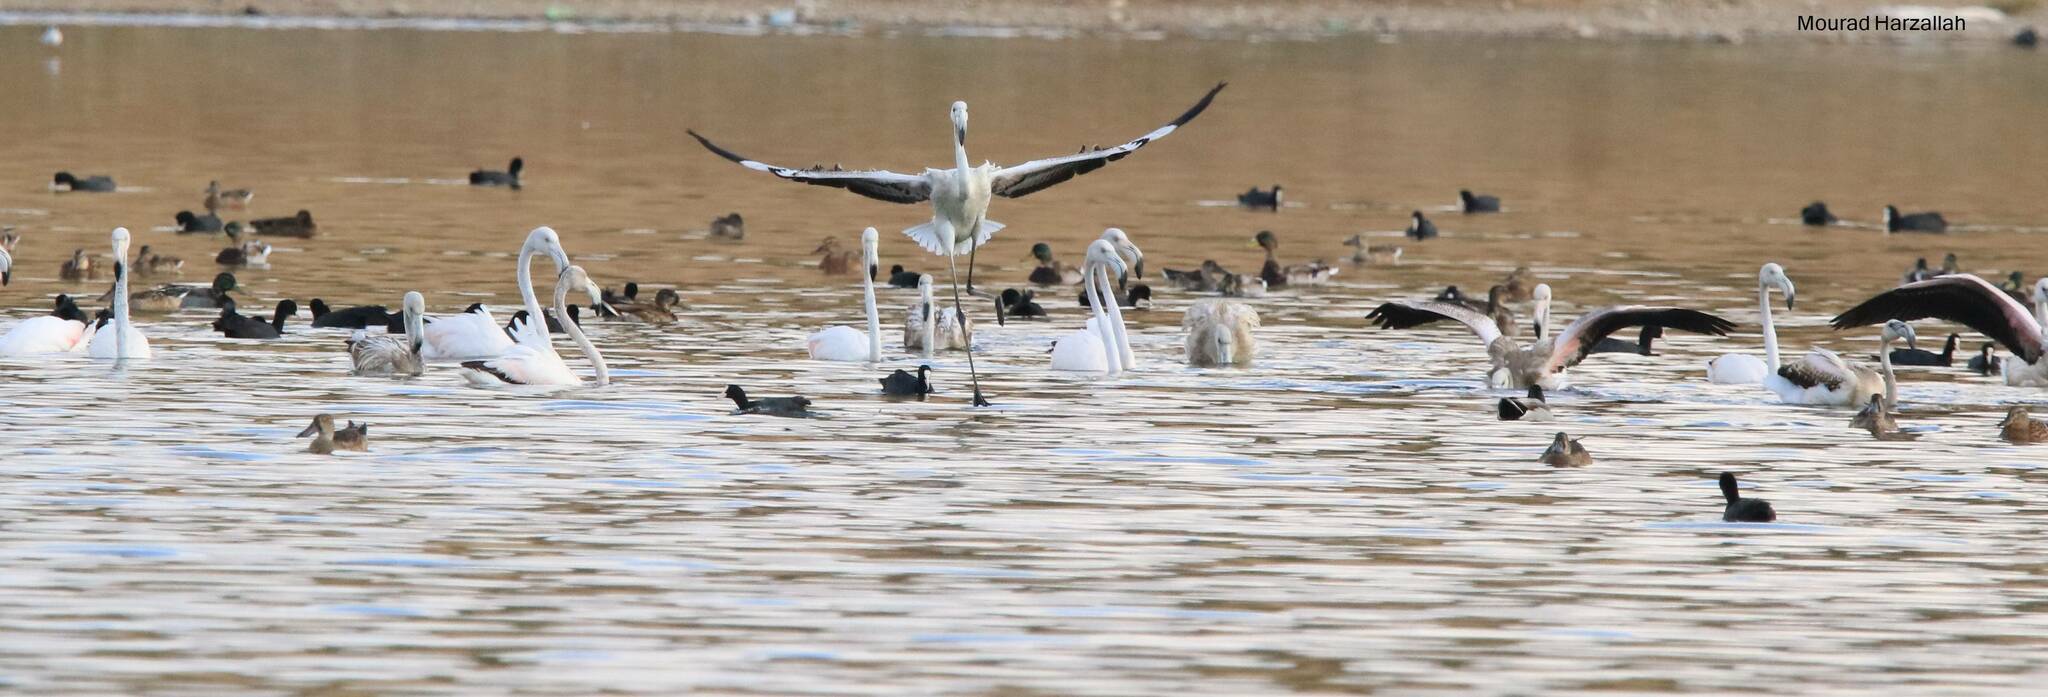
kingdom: Animalia
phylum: Chordata
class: Aves
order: Phoenicopteriformes
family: Phoenicopteridae
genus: Phoenicopterus
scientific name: Phoenicopterus roseus
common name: Greater flamingo
